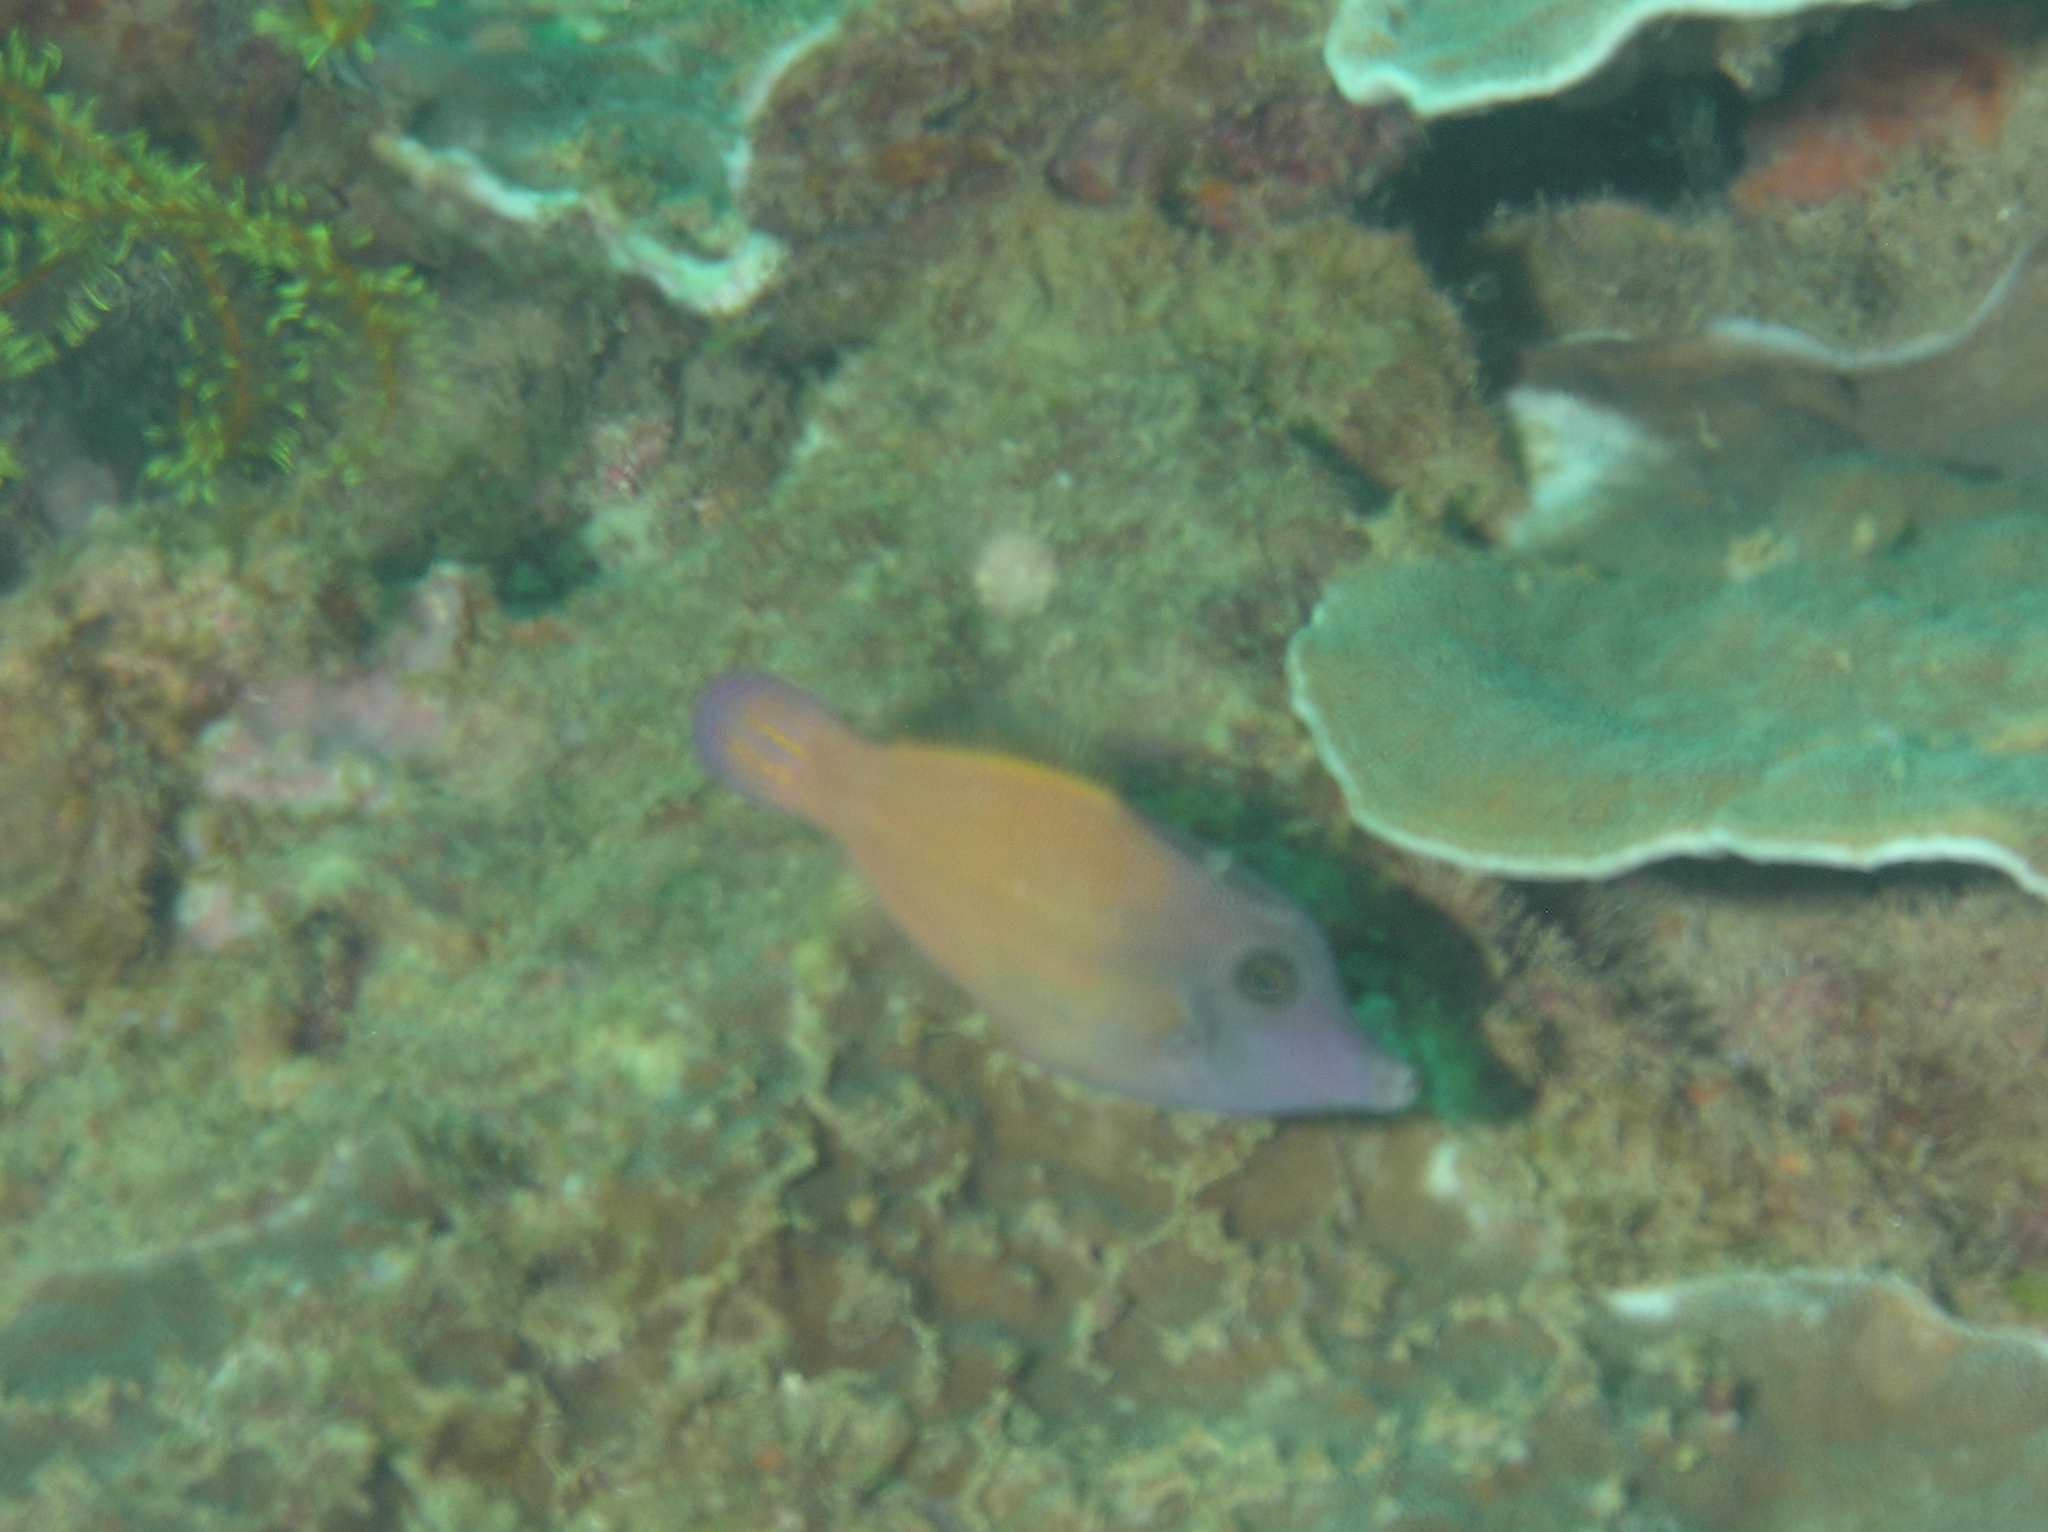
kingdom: Animalia
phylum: Chordata
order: Tetraodontiformes
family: Monacanthidae
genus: Pervagor
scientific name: Pervagor melanocephalus
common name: Black-headed leatherjacket
